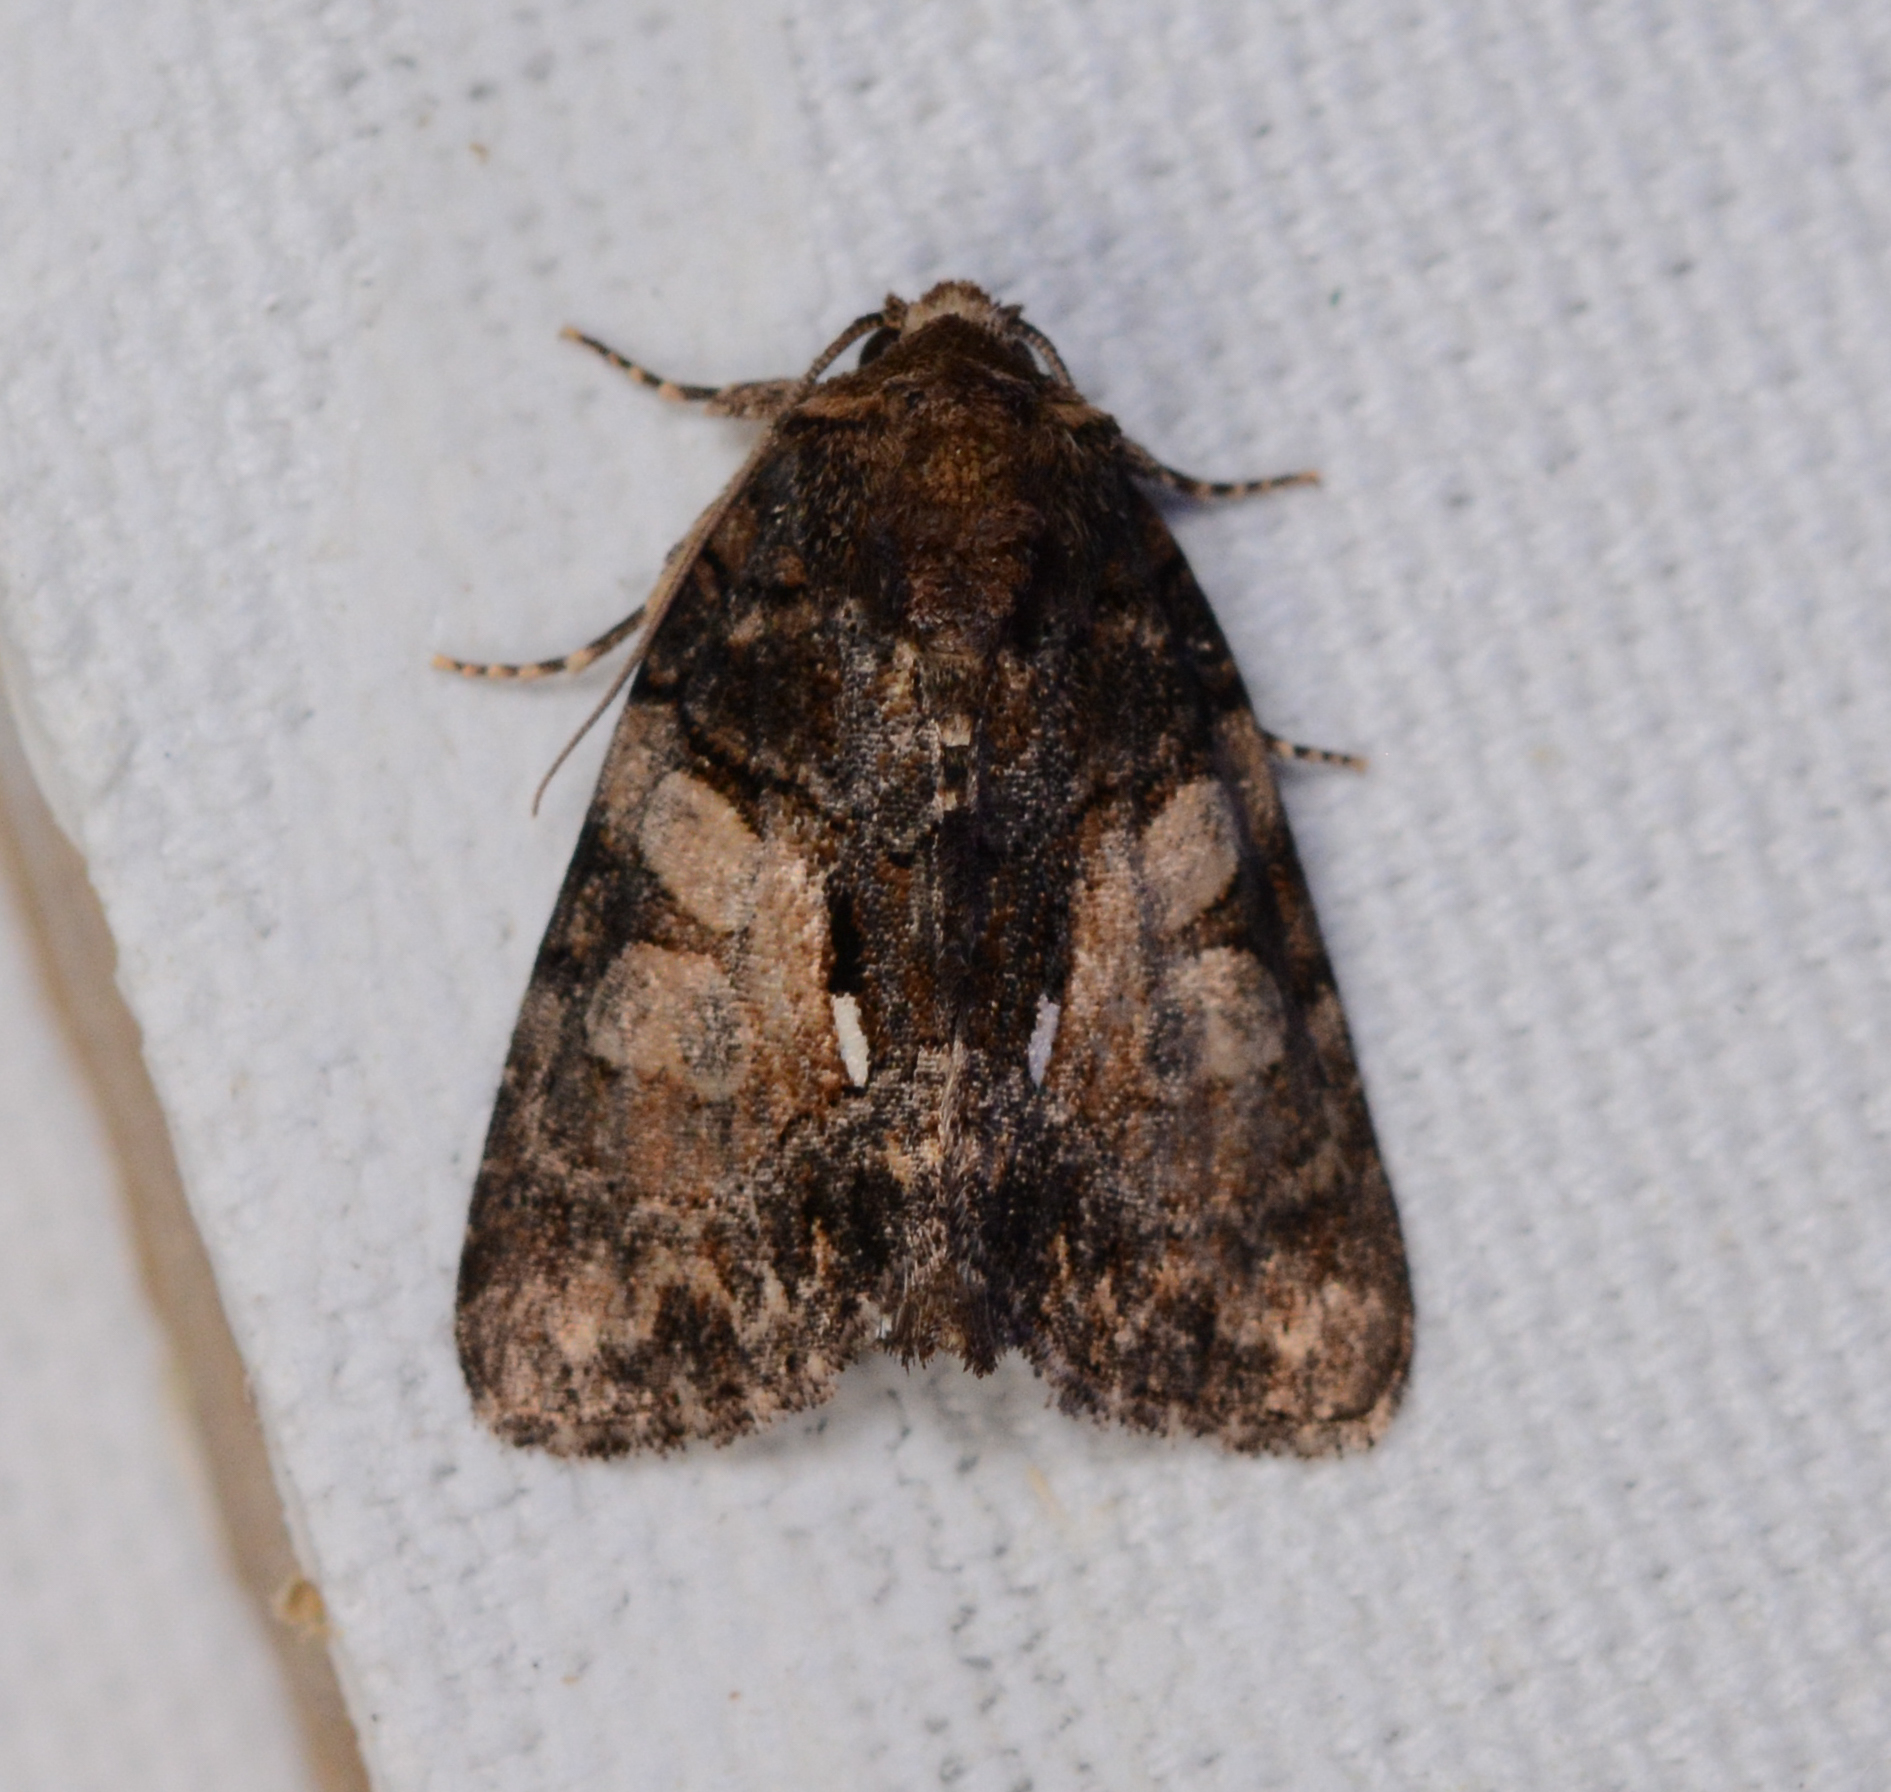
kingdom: Animalia
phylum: Arthropoda
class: Insecta
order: Lepidoptera
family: Noctuidae
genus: Chytonix
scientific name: Chytonix palliatricula
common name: Cloaked marvel
